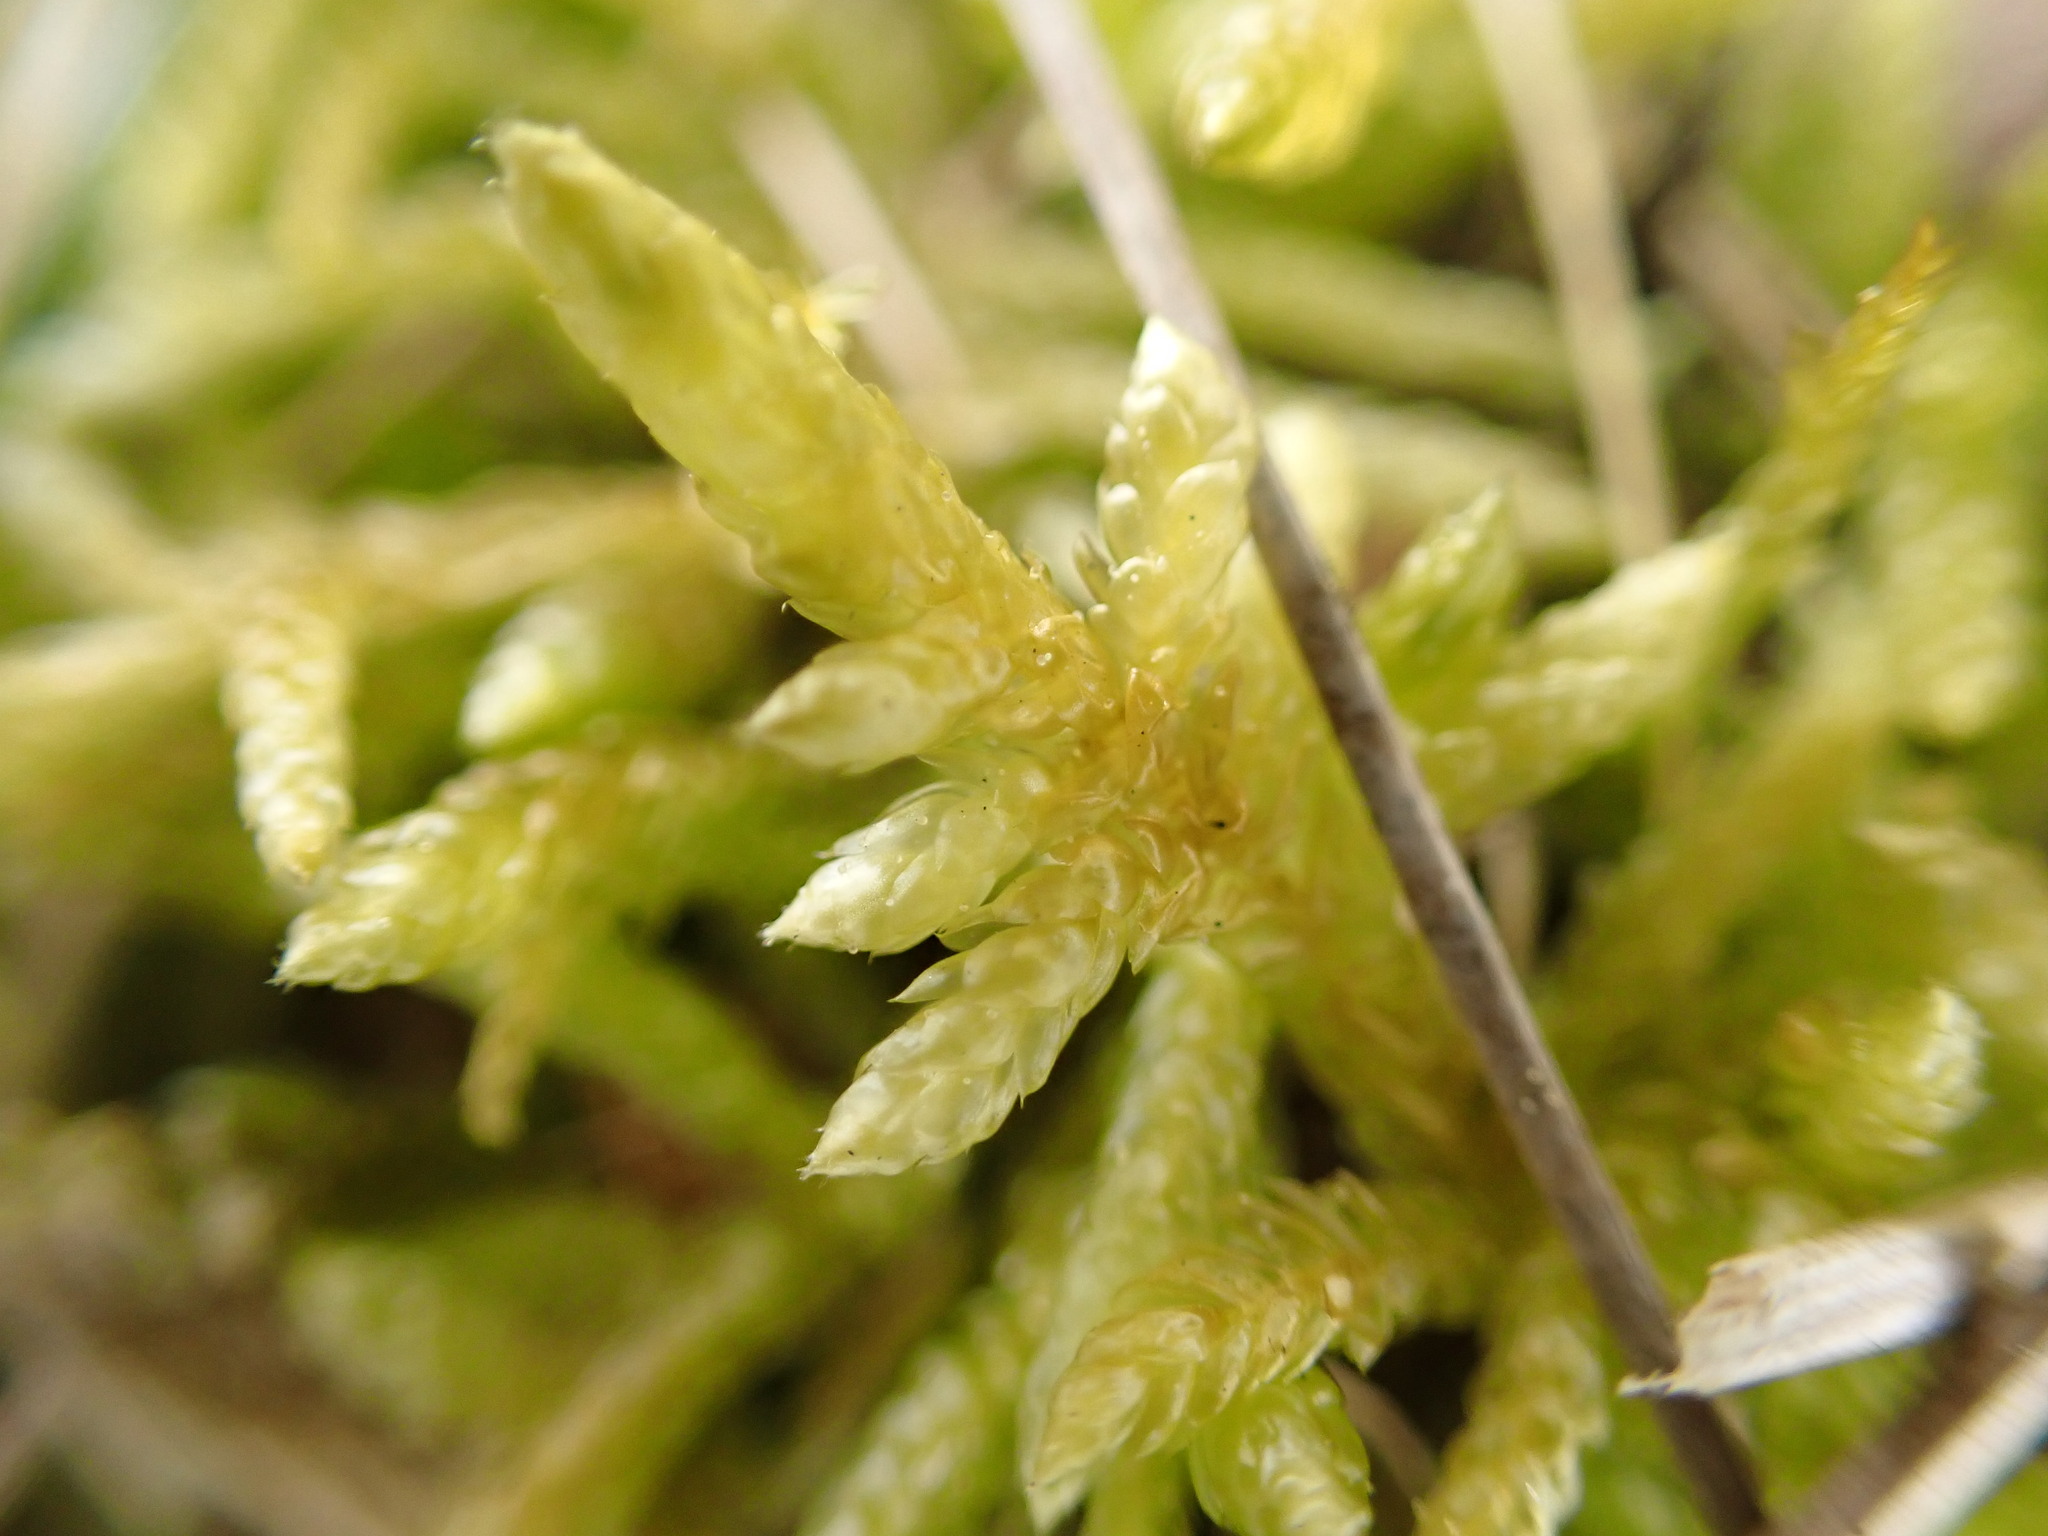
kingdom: Plantae
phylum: Bryophyta
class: Bryopsida
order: Hypnales
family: Brachytheciaceae
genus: Pseudoscleropodium
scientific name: Pseudoscleropodium purum
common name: Neat feather-moss
